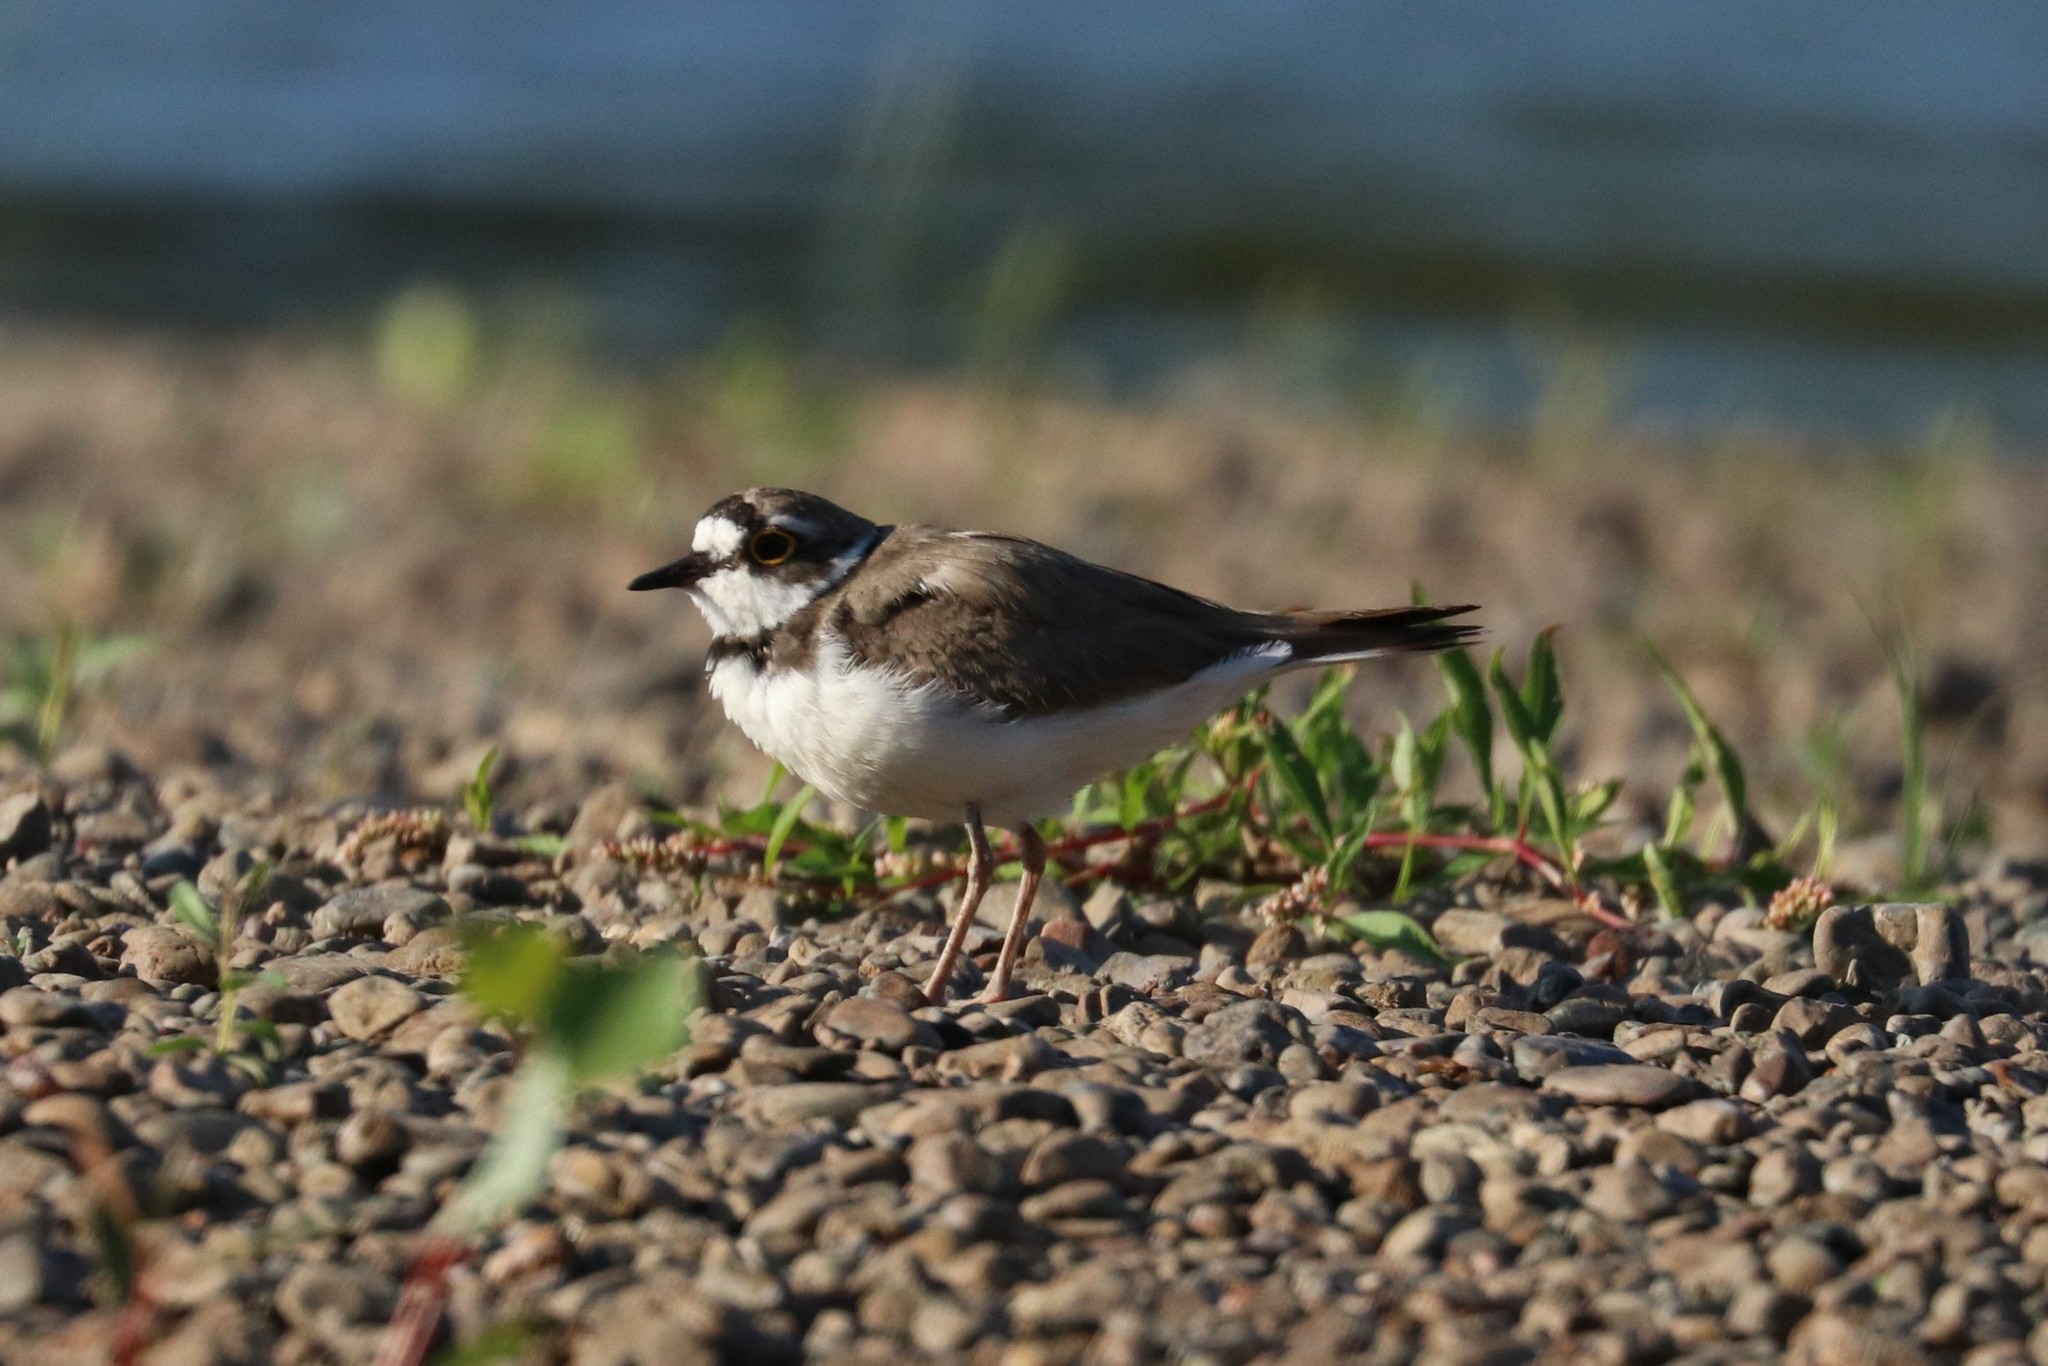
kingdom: Animalia
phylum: Chordata
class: Aves
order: Charadriiformes
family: Charadriidae
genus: Charadrius
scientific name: Charadrius dubius
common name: Little ringed plover
